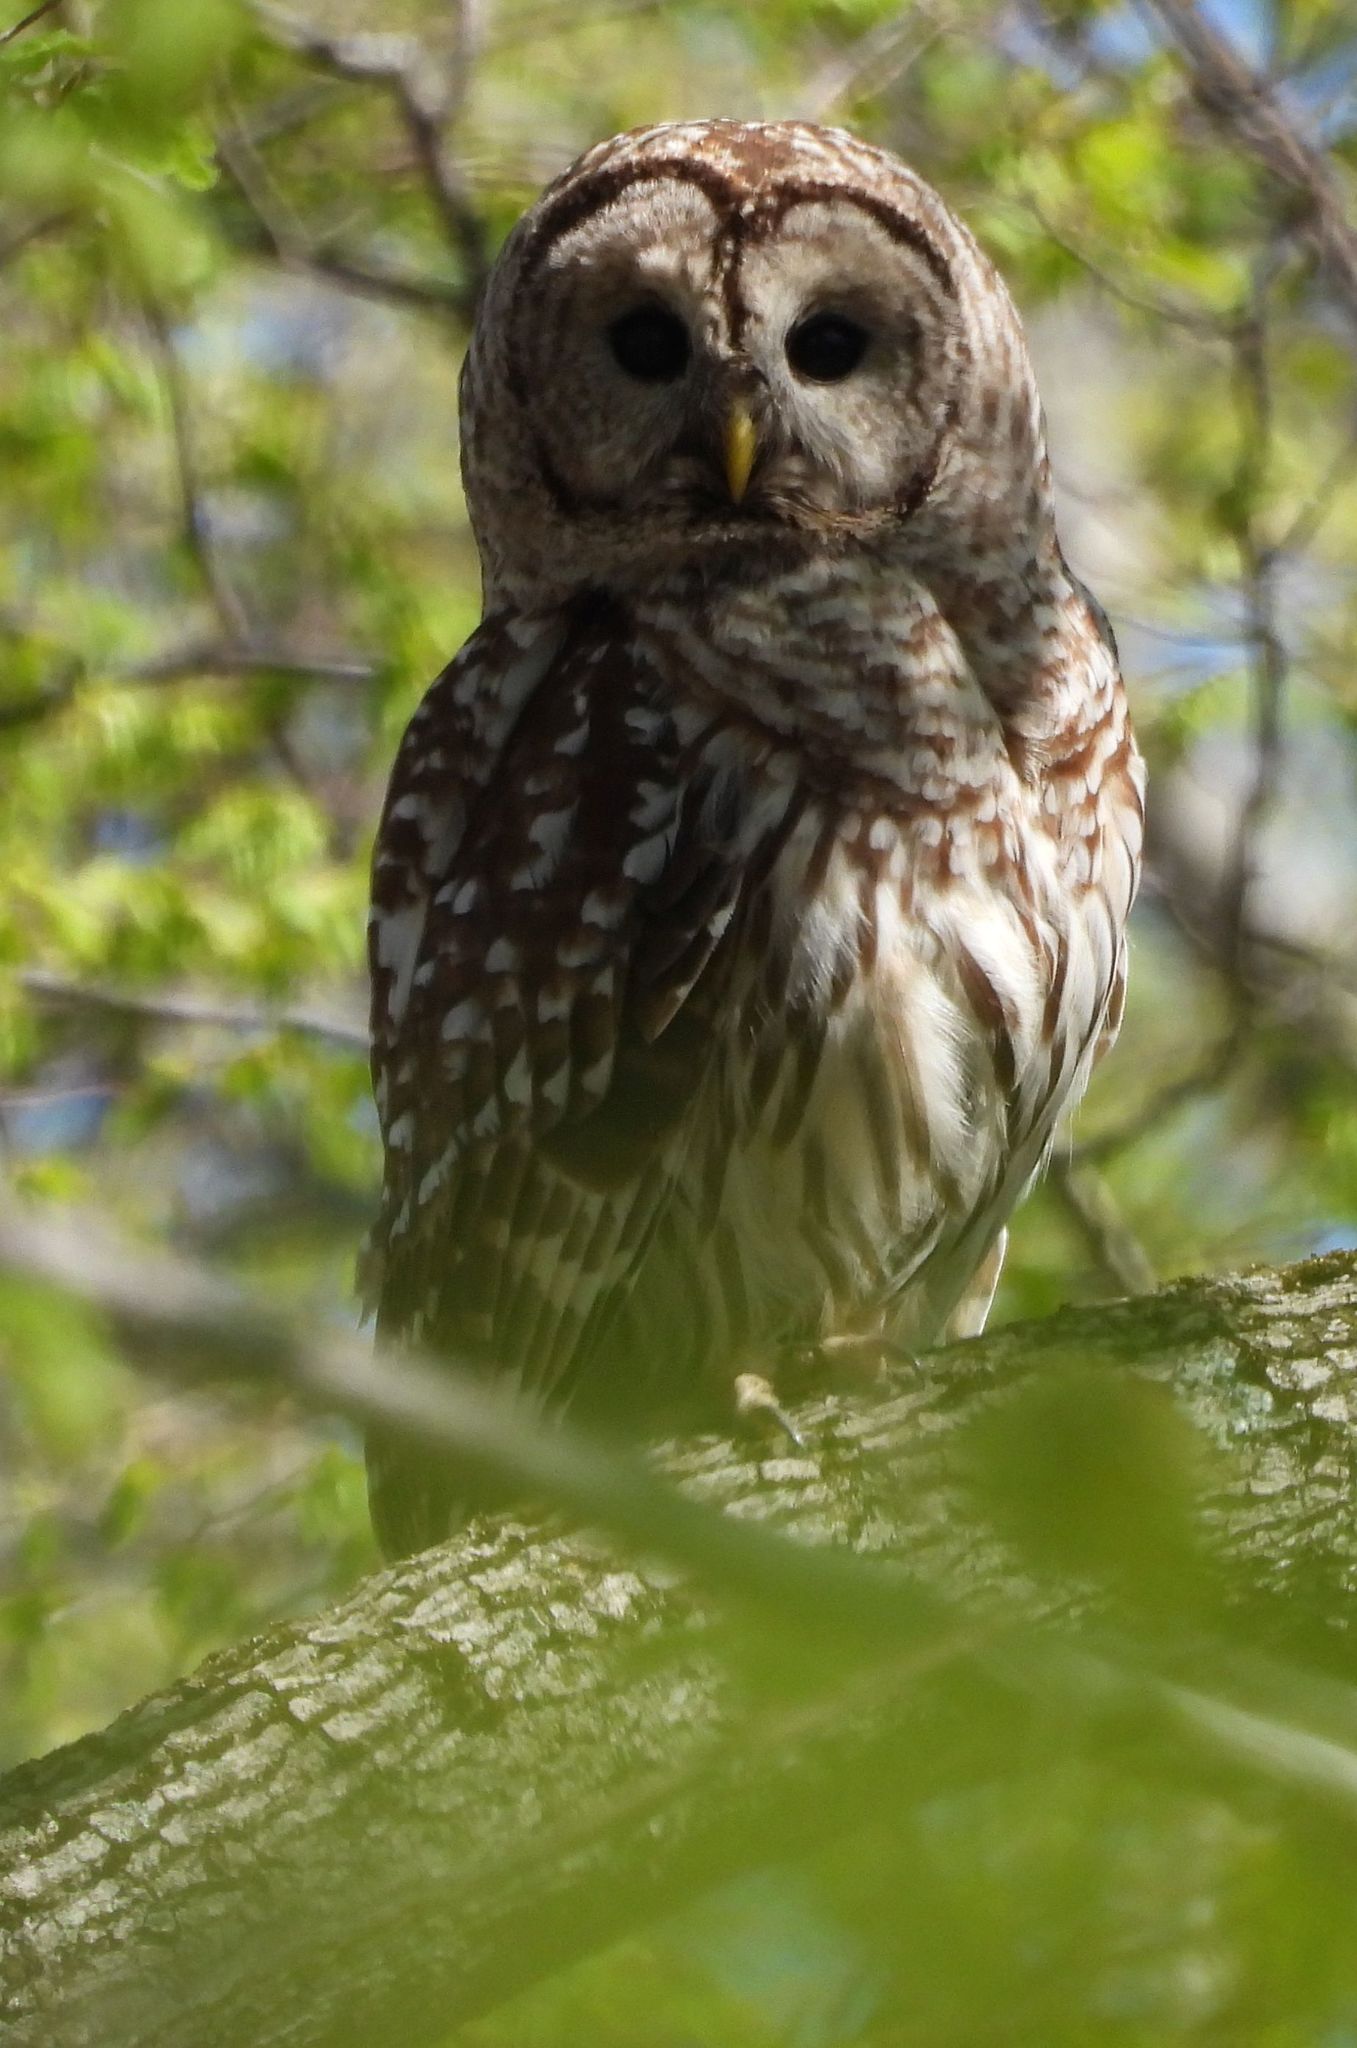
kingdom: Animalia
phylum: Chordata
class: Aves
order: Strigiformes
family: Strigidae
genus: Strix
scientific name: Strix varia
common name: Barred owl
